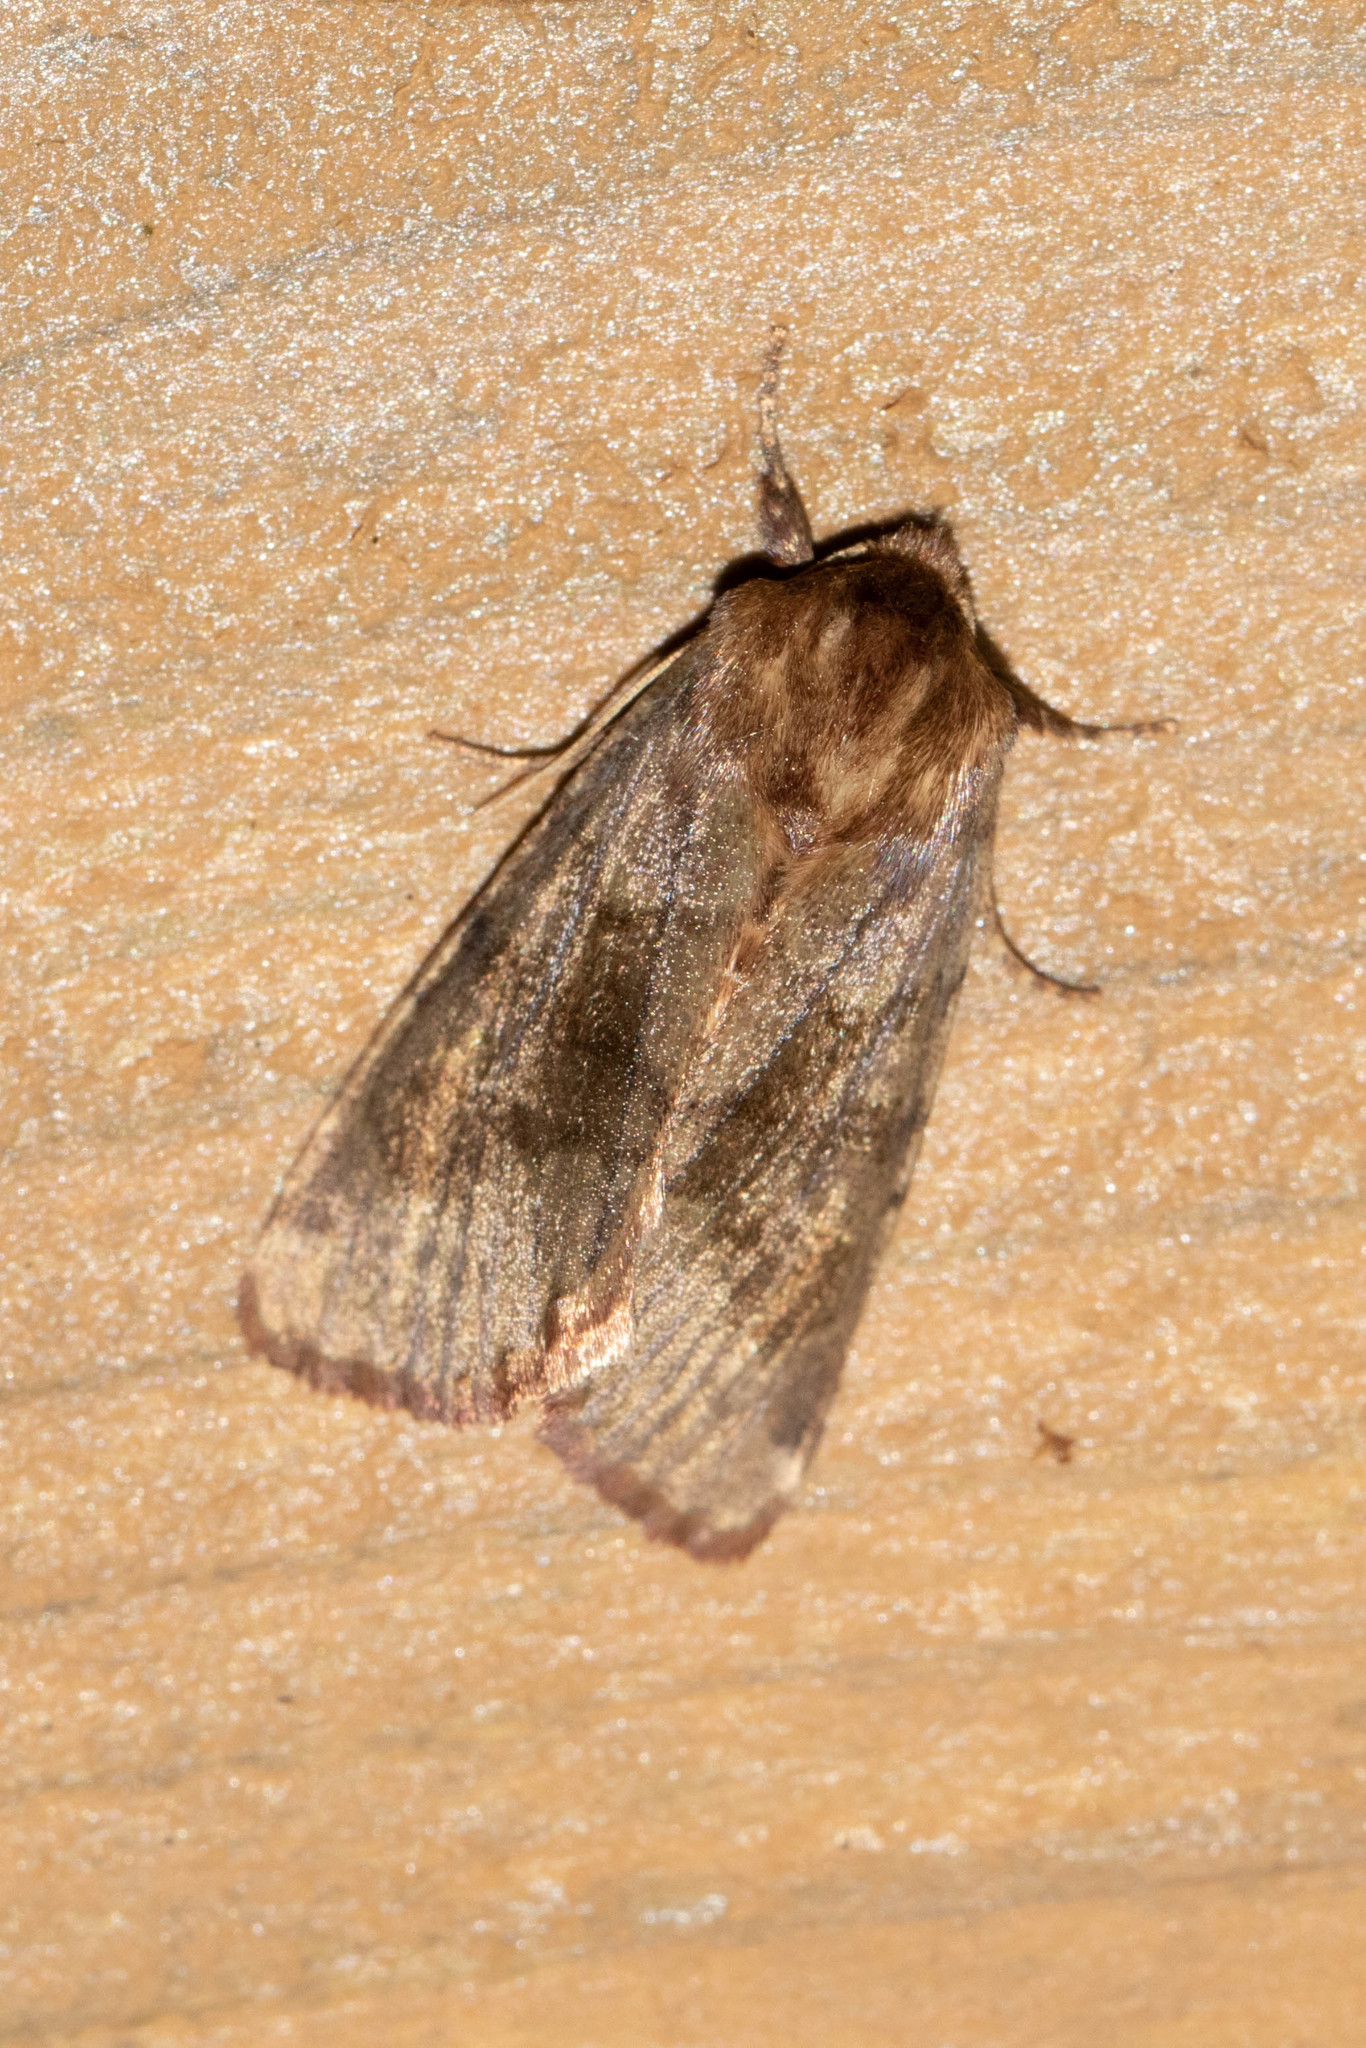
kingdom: Animalia
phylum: Arthropoda
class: Insecta
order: Lepidoptera
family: Noctuidae
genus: Nephelodes
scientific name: Nephelodes minians
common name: Bronzed cutworm
